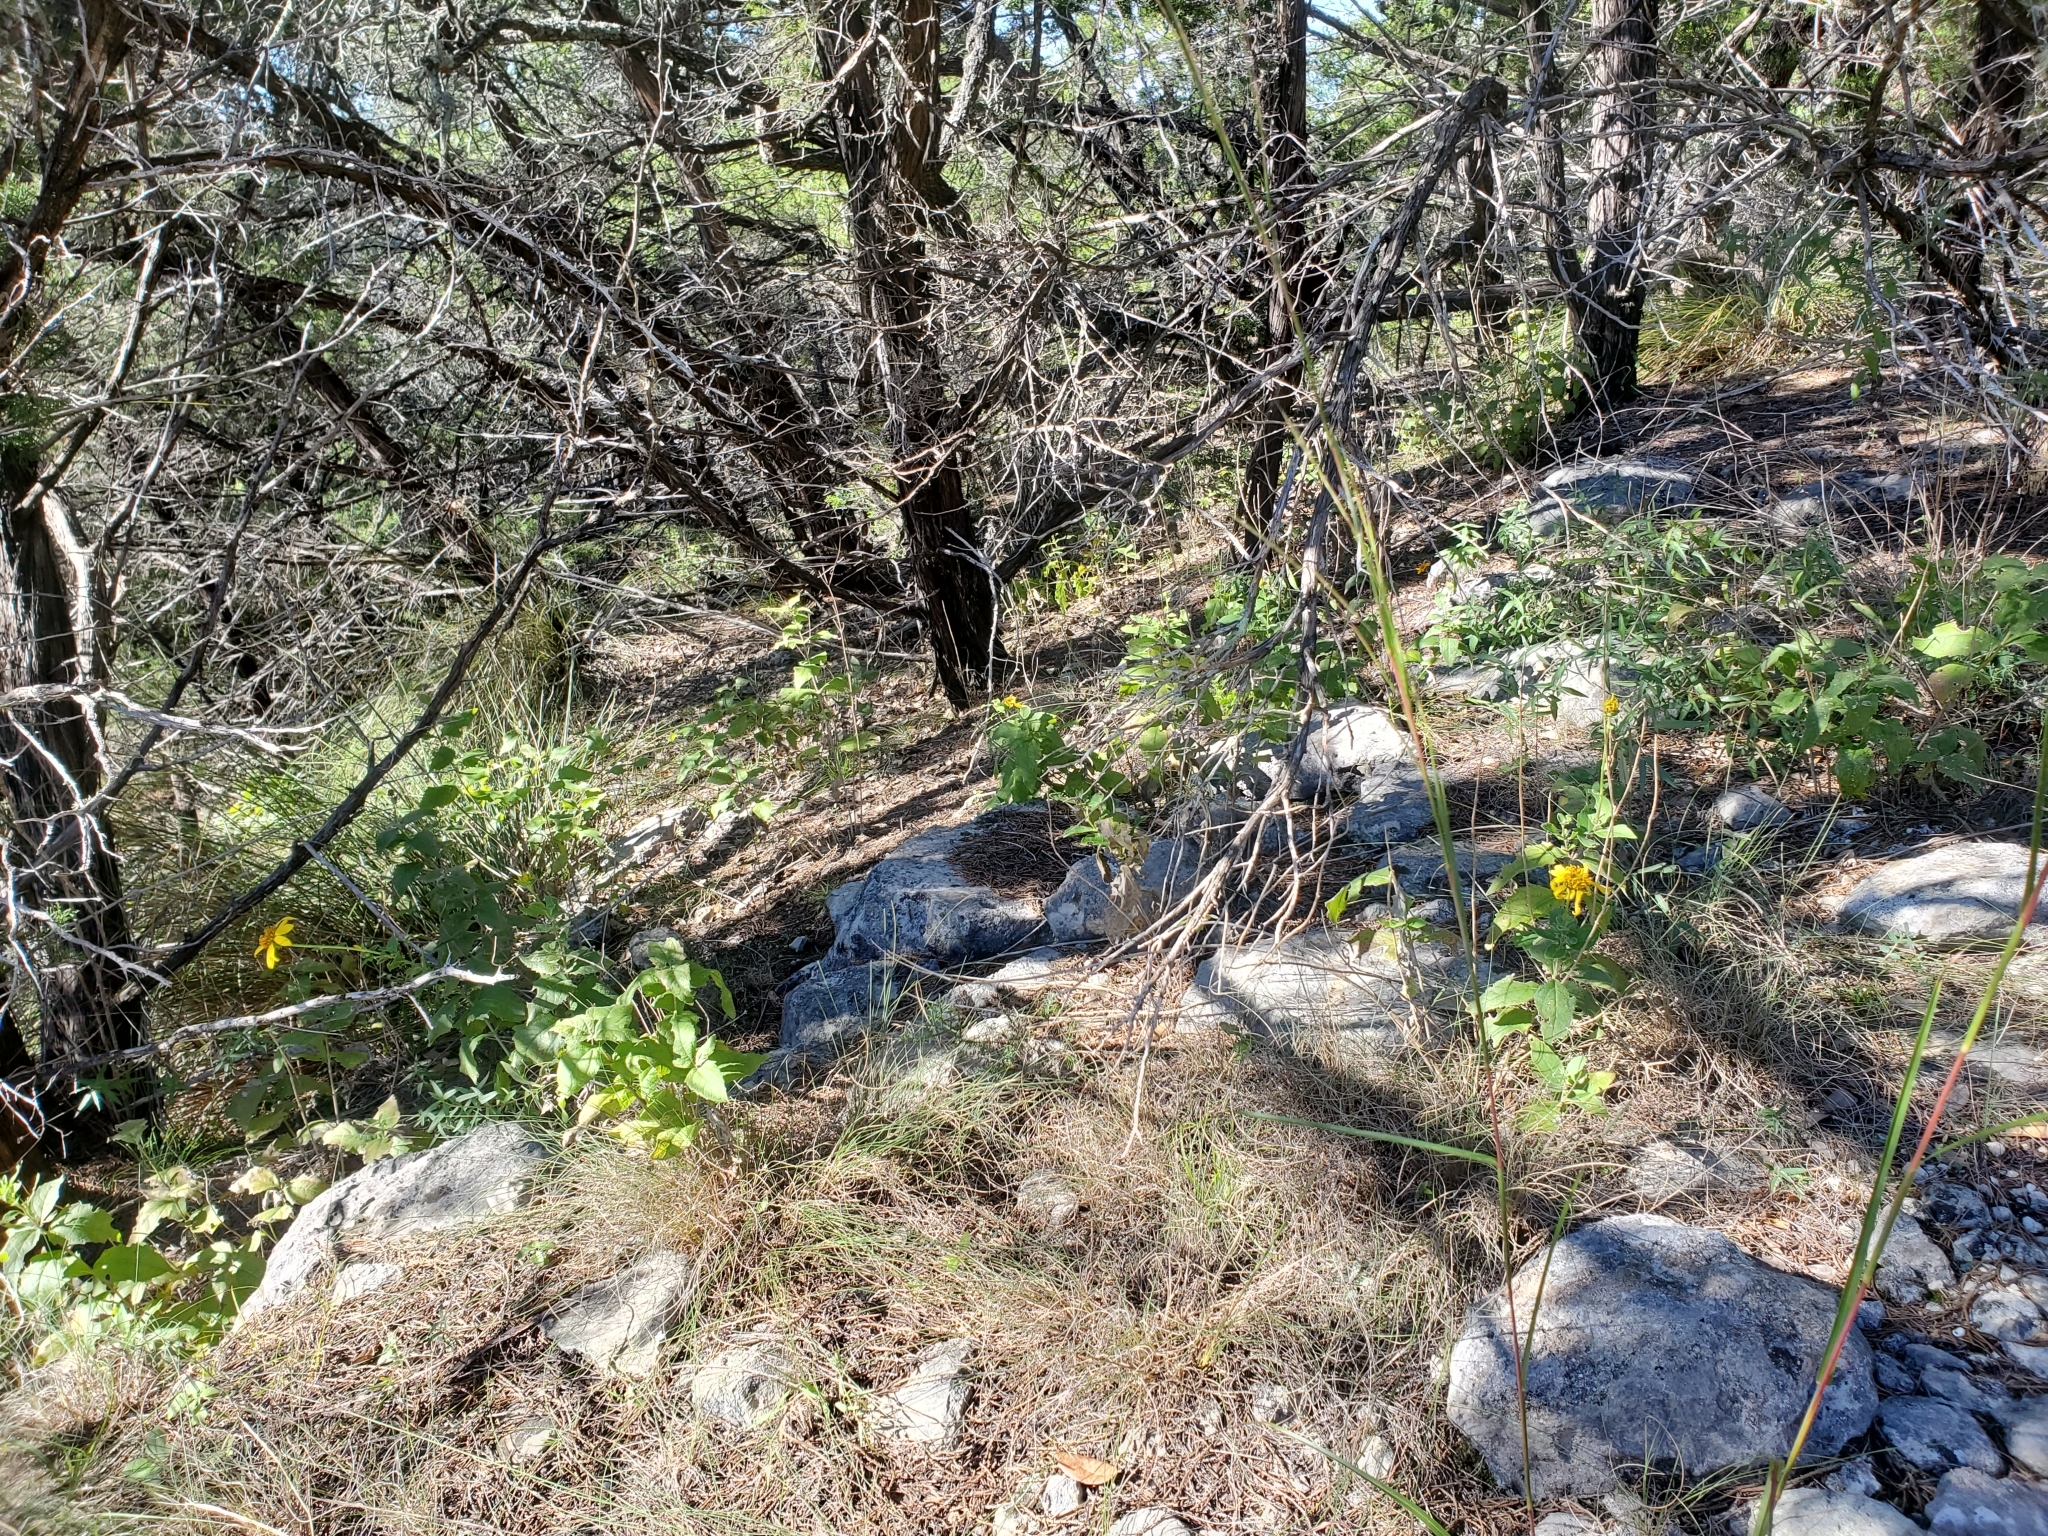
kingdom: Plantae
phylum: Tracheophyta
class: Magnoliopsida
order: Asterales
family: Asteraceae
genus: Verbesina
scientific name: Verbesina lindheimeri
